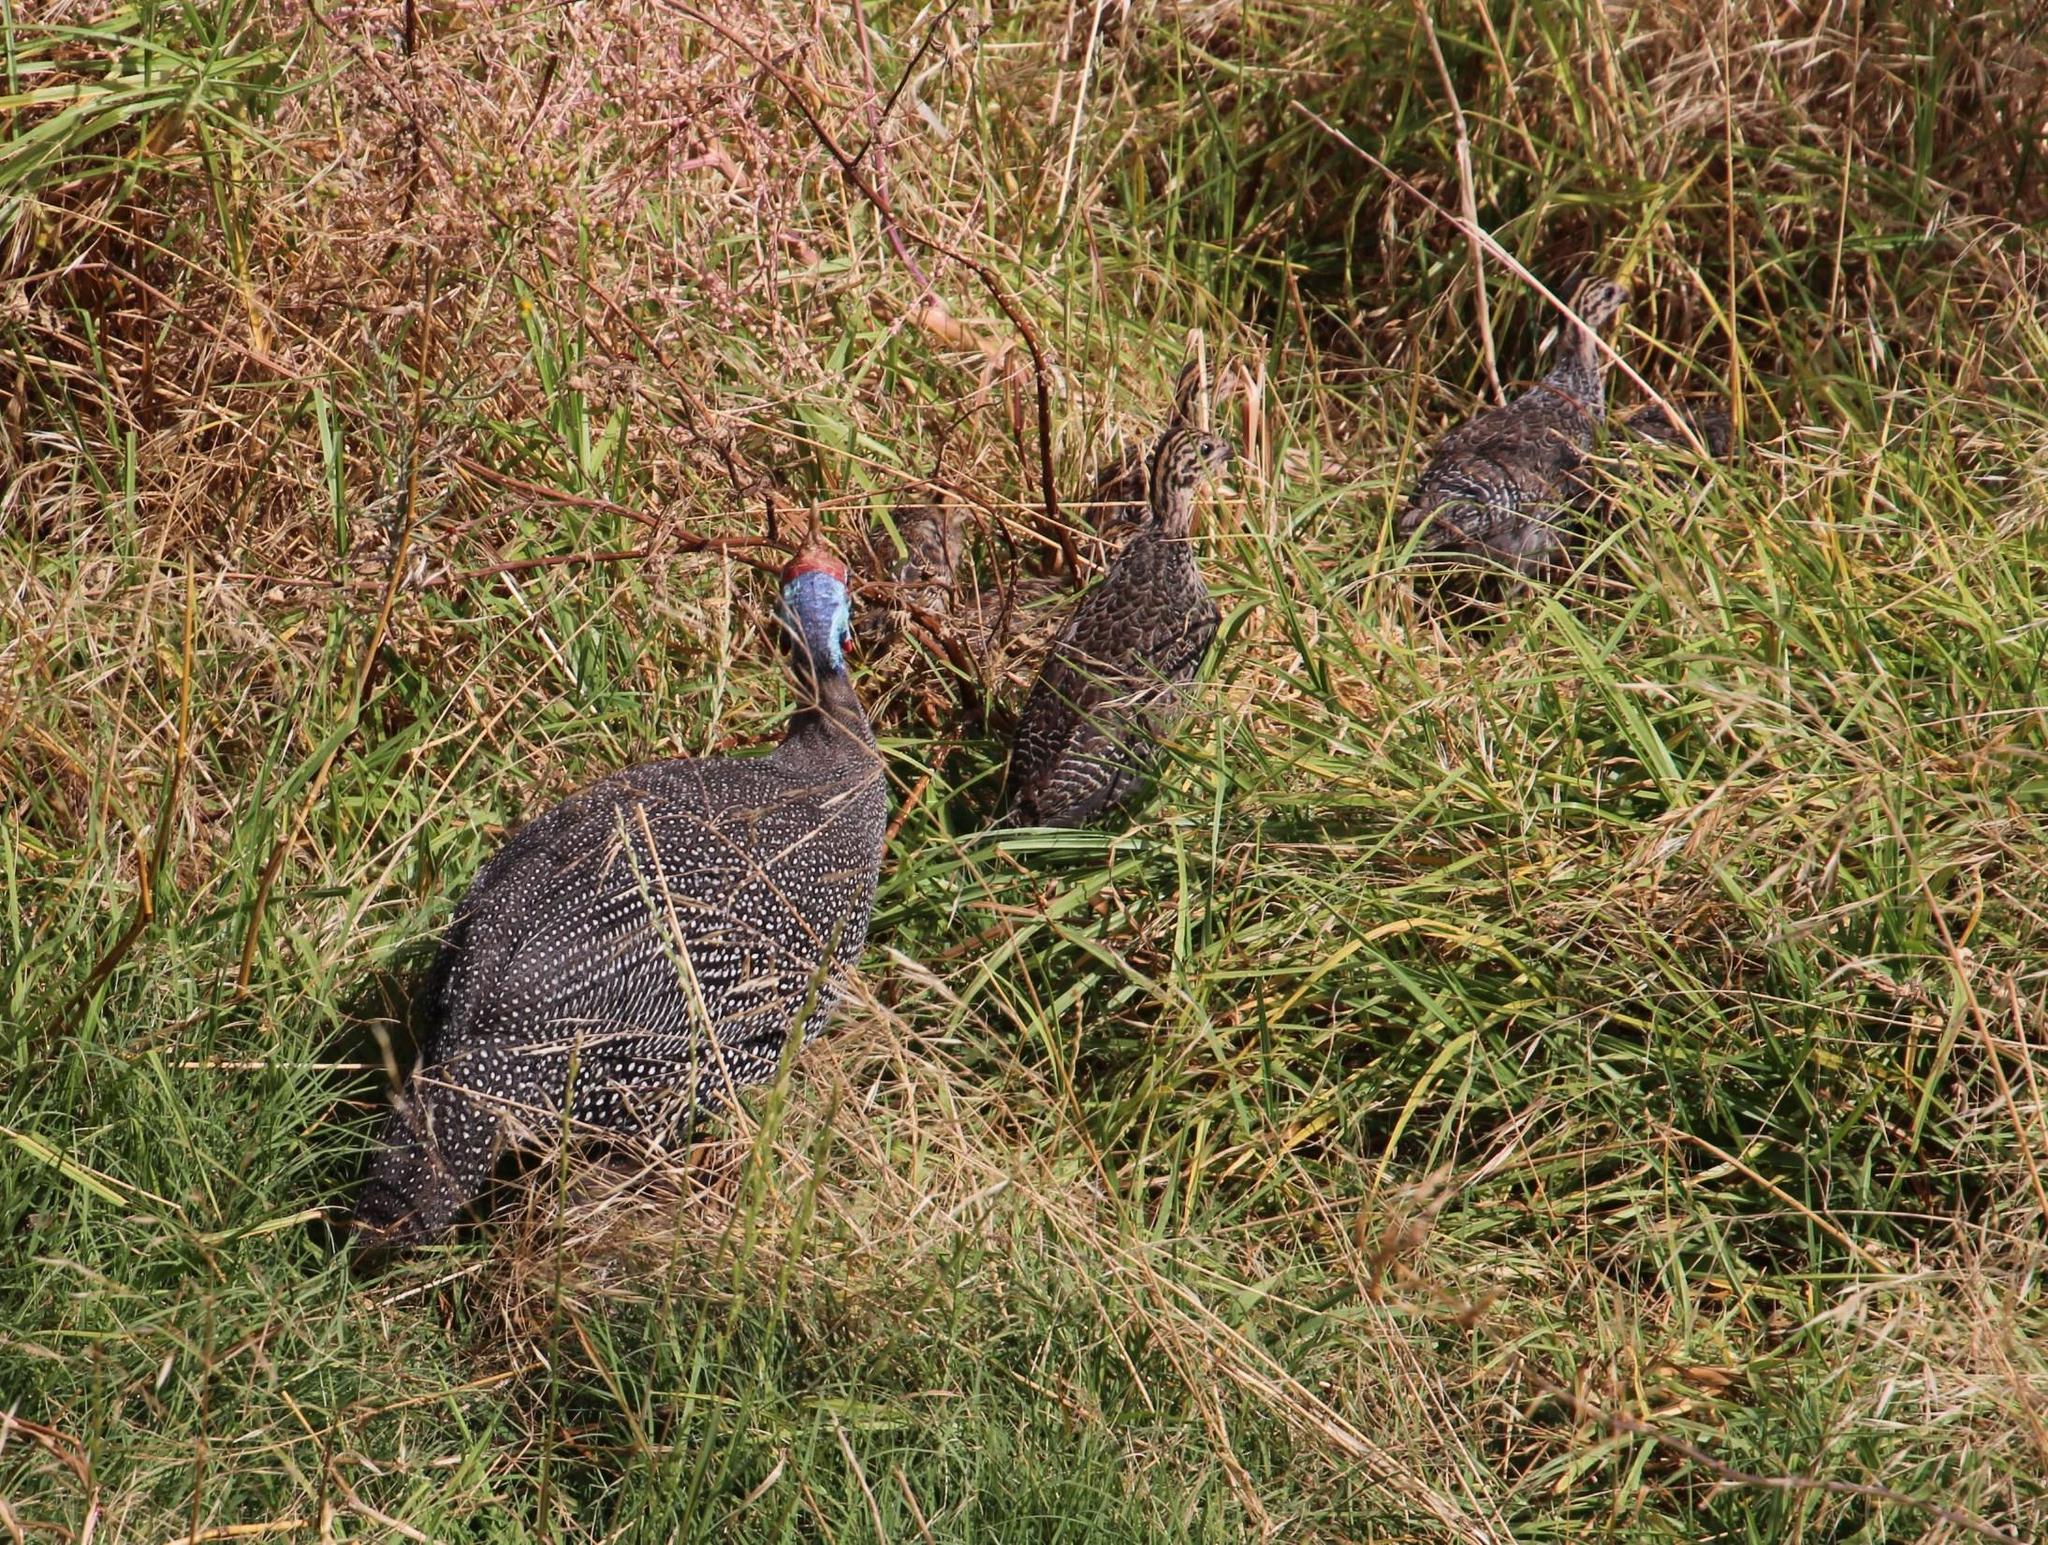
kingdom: Animalia
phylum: Chordata
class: Aves
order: Galliformes
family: Numididae
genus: Numida
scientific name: Numida meleagris
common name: Helmeted guineafowl
